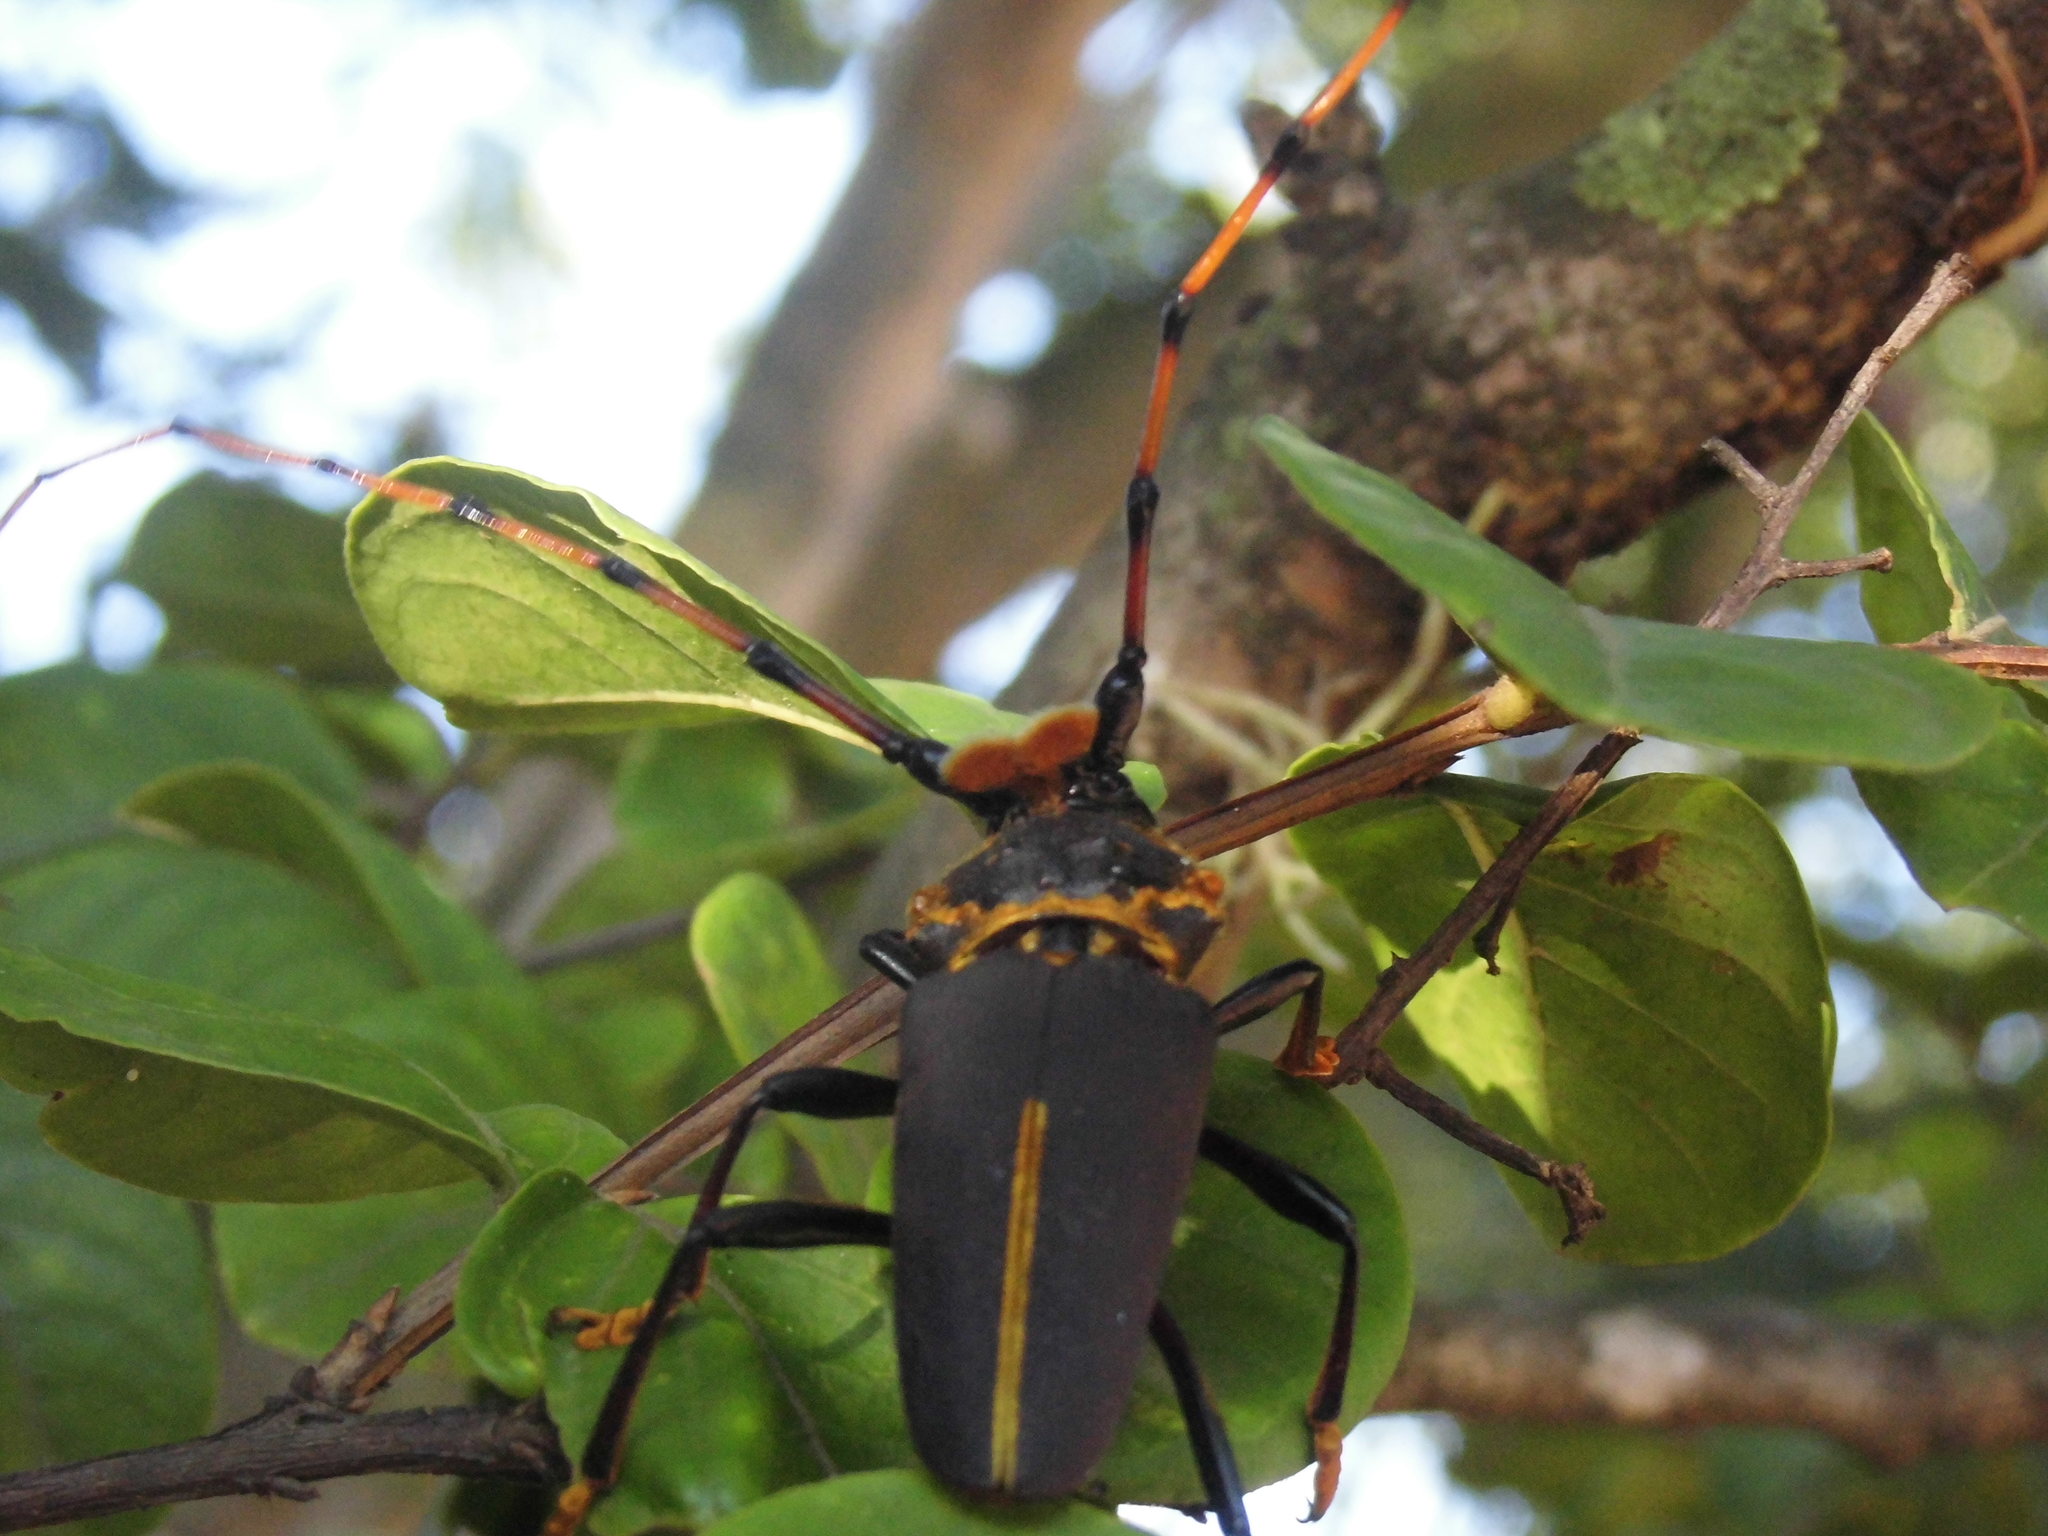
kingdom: Animalia
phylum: Arthropoda
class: Insecta
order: Coleoptera
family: Cerambycidae
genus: Dorcacerus
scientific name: Dorcacerus barbatus
